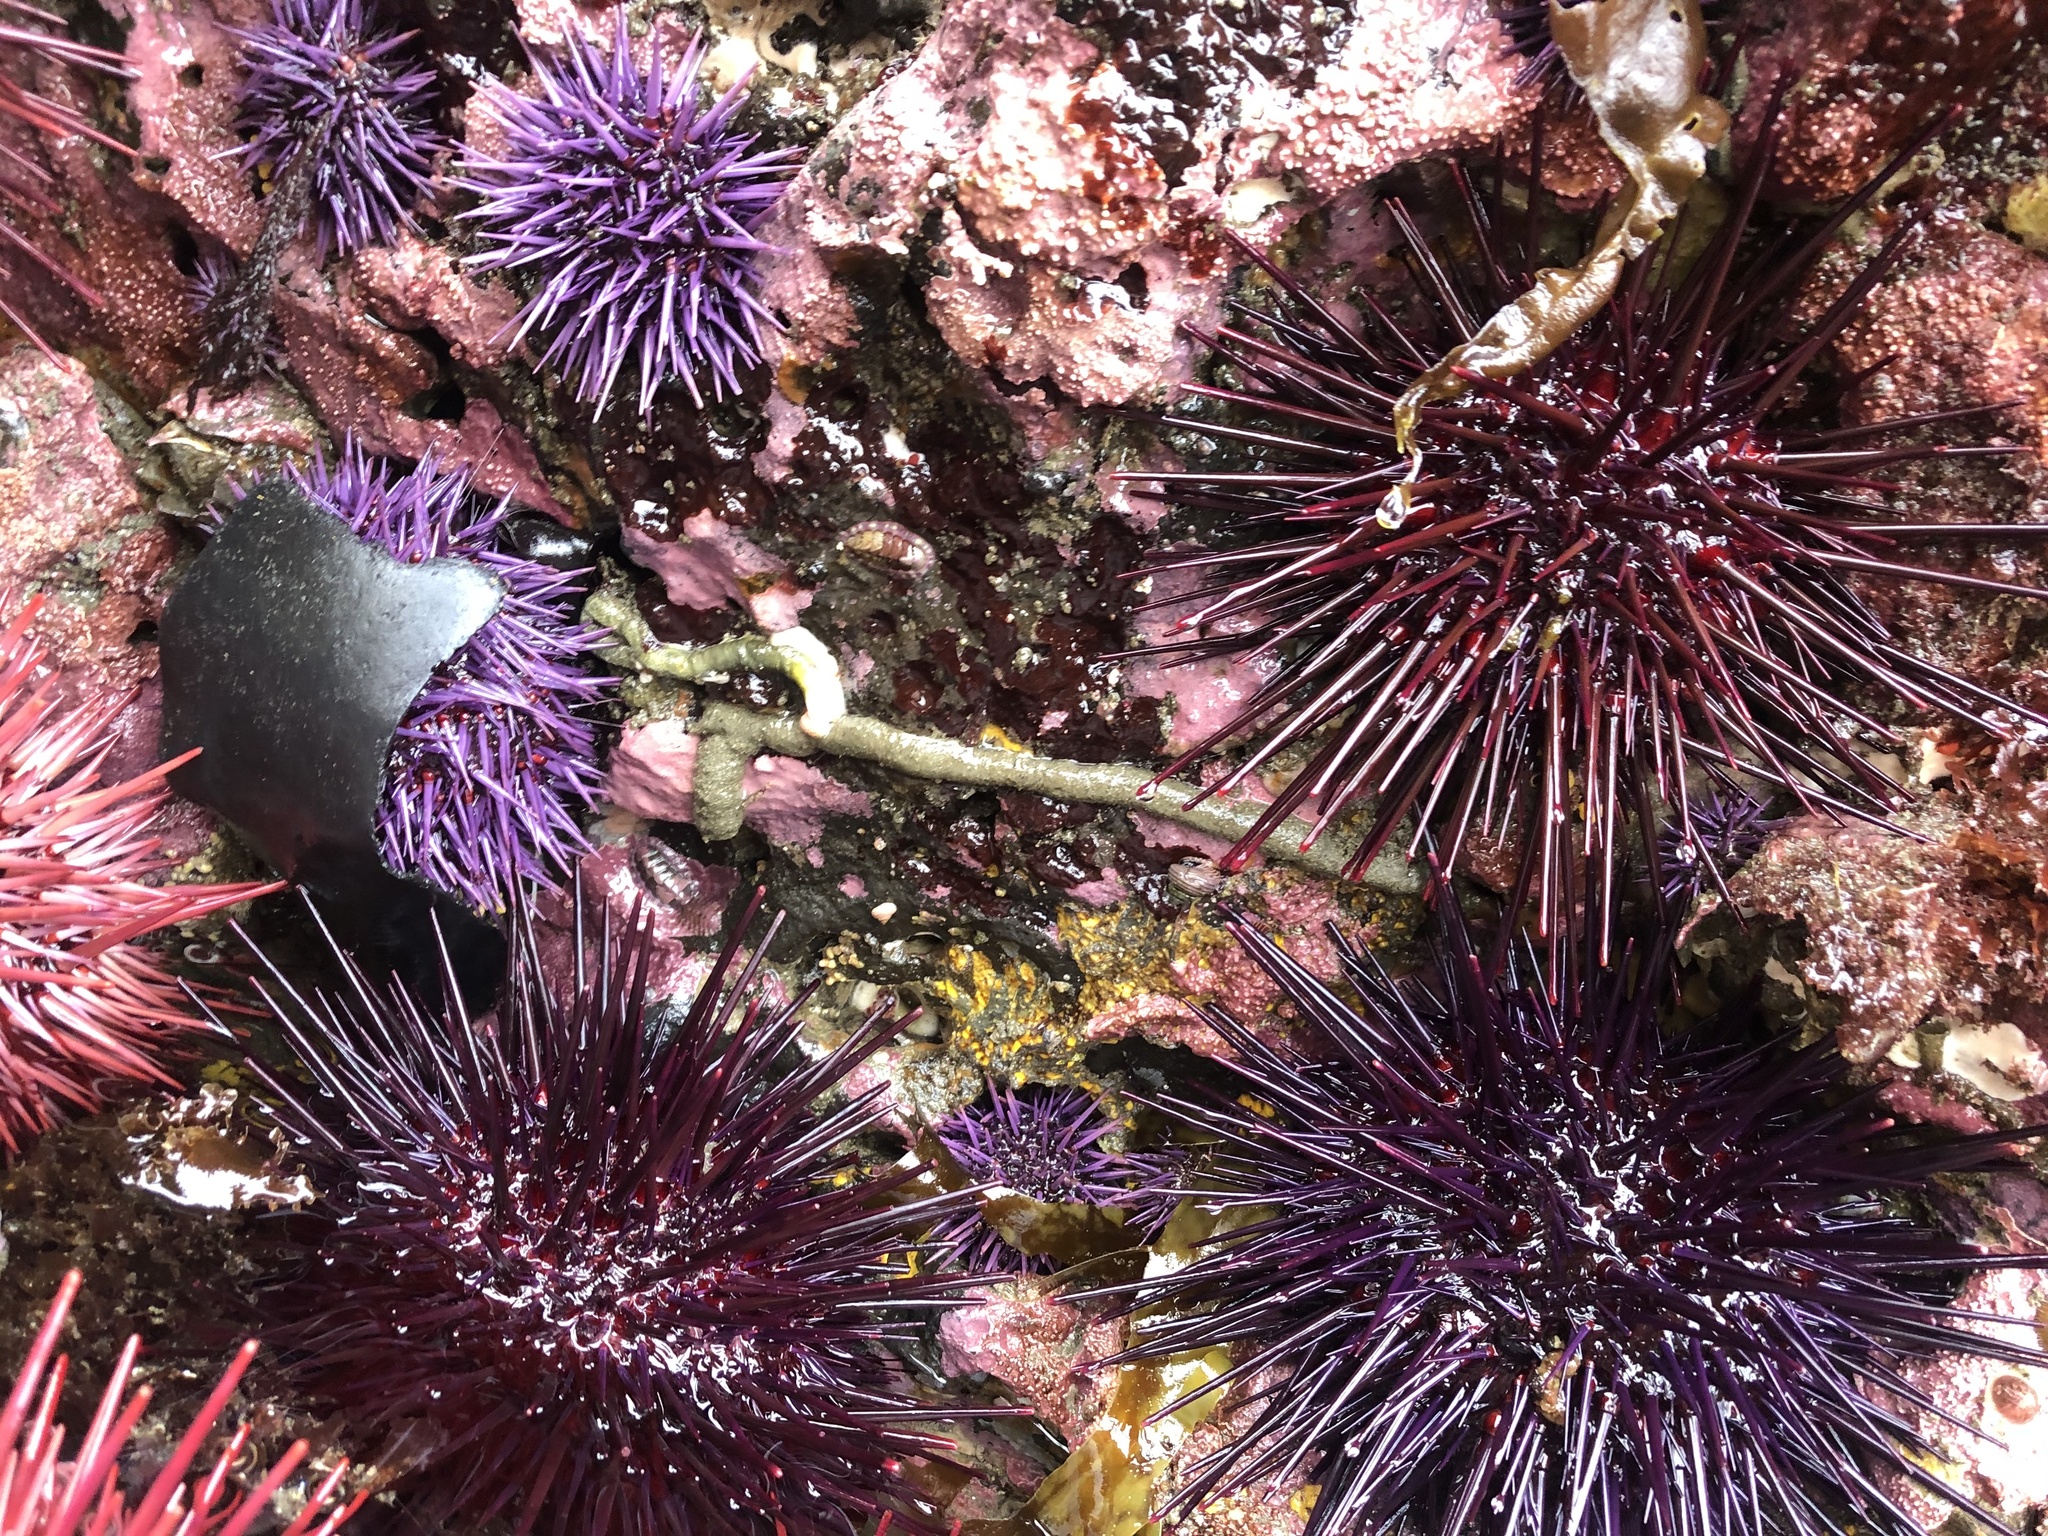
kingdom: Animalia
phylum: Echinodermata
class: Echinoidea
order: Camarodonta
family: Strongylocentrotidae
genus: Strongylocentrotus
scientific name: Strongylocentrotus purpuratus
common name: Purple sea urchin
